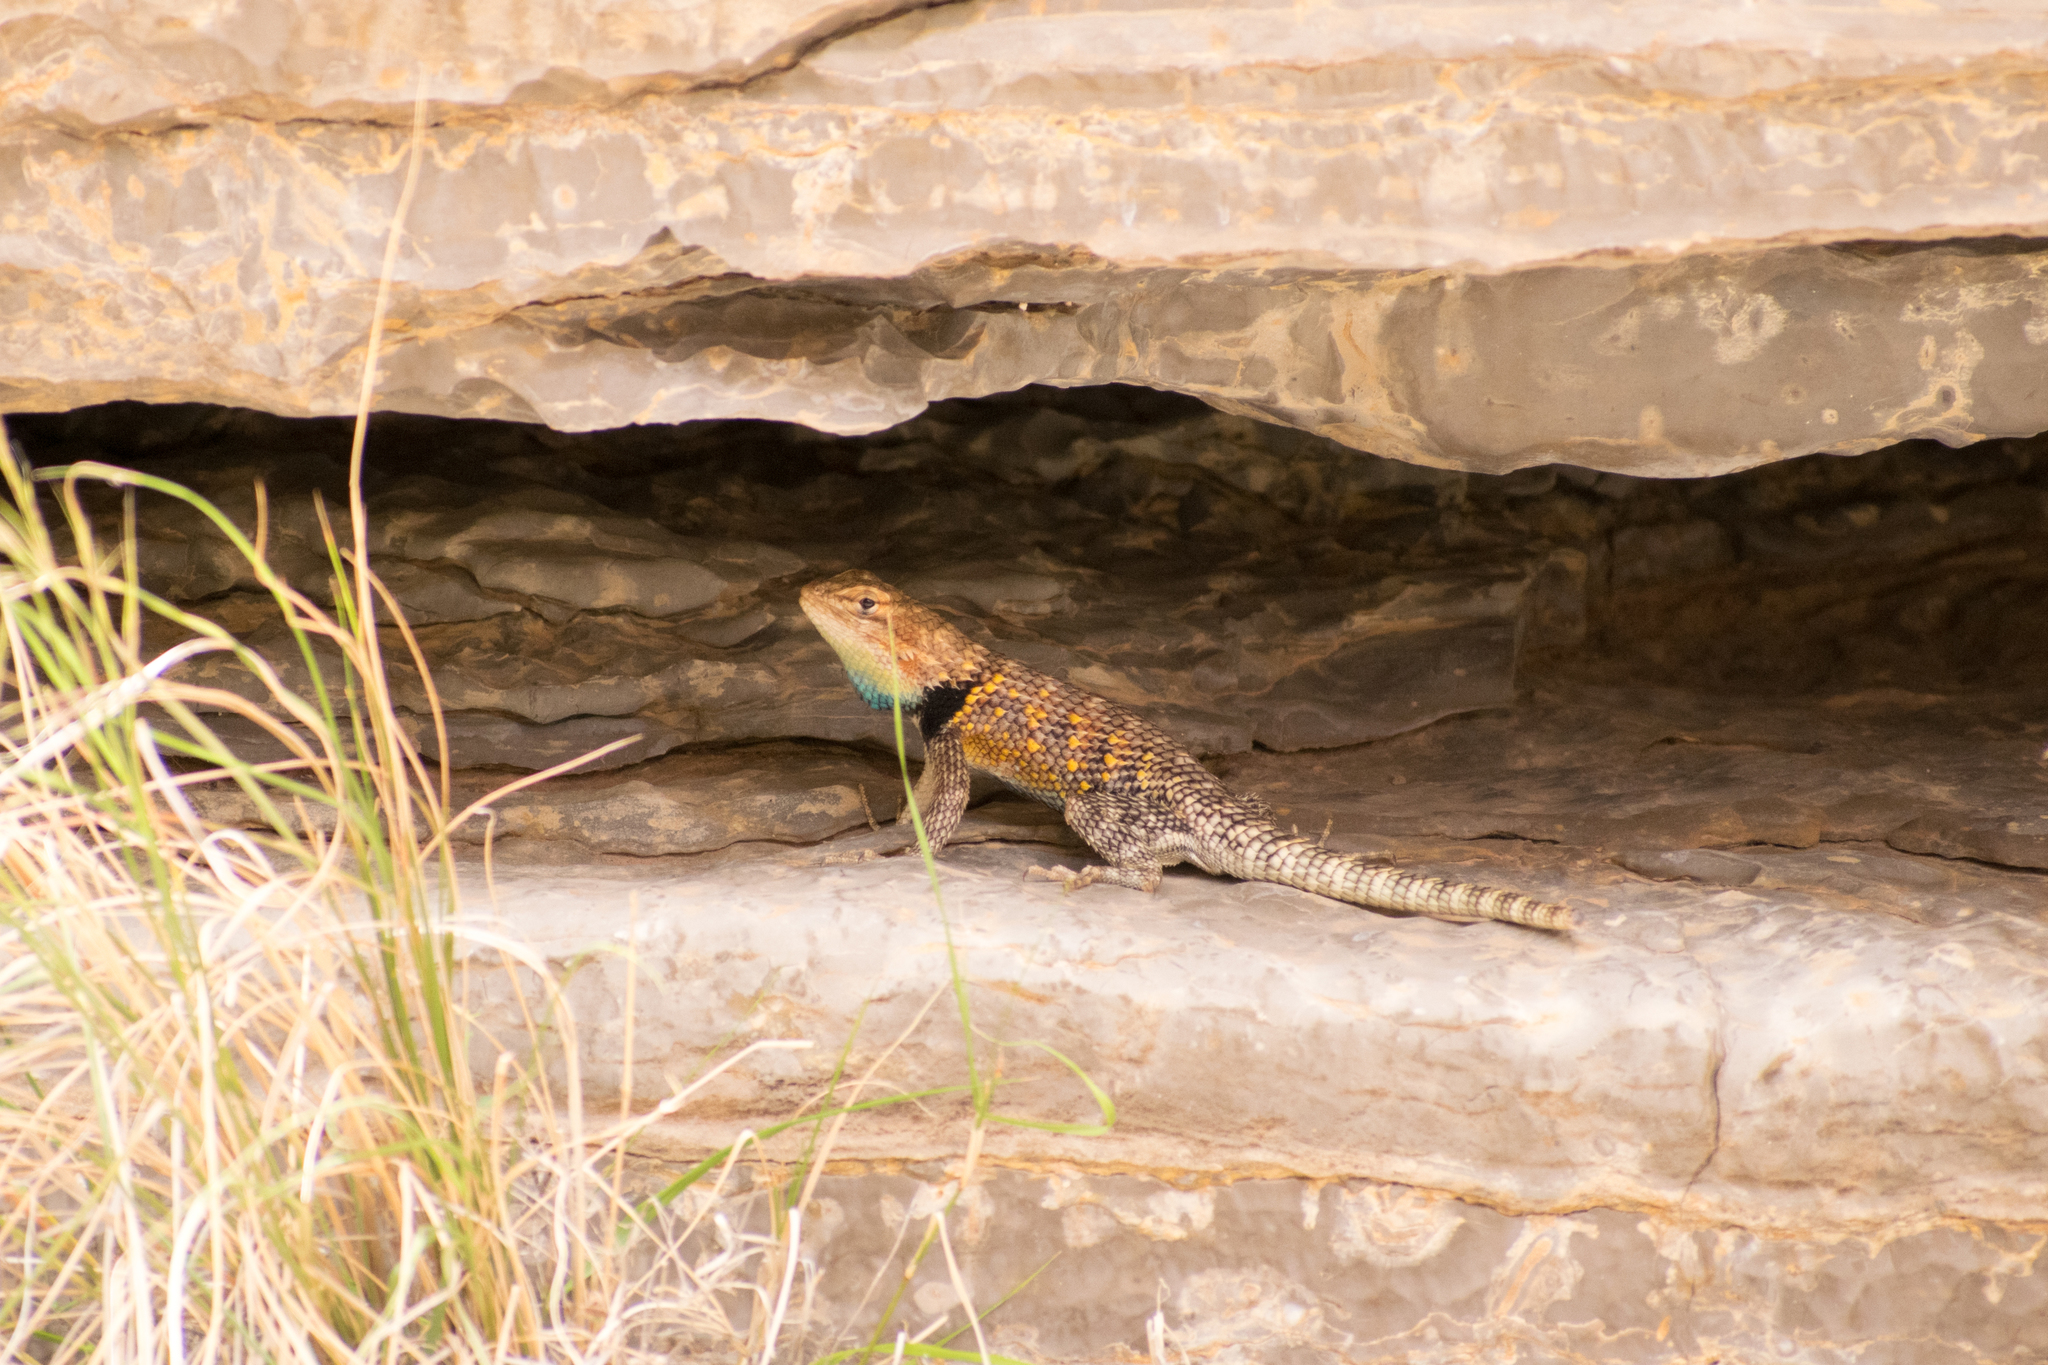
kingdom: Animalia
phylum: Chordata
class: Squamata
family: Phrynosomatidae
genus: Sceloporus
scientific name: Sceloporus magister
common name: Desert spiny lizard
